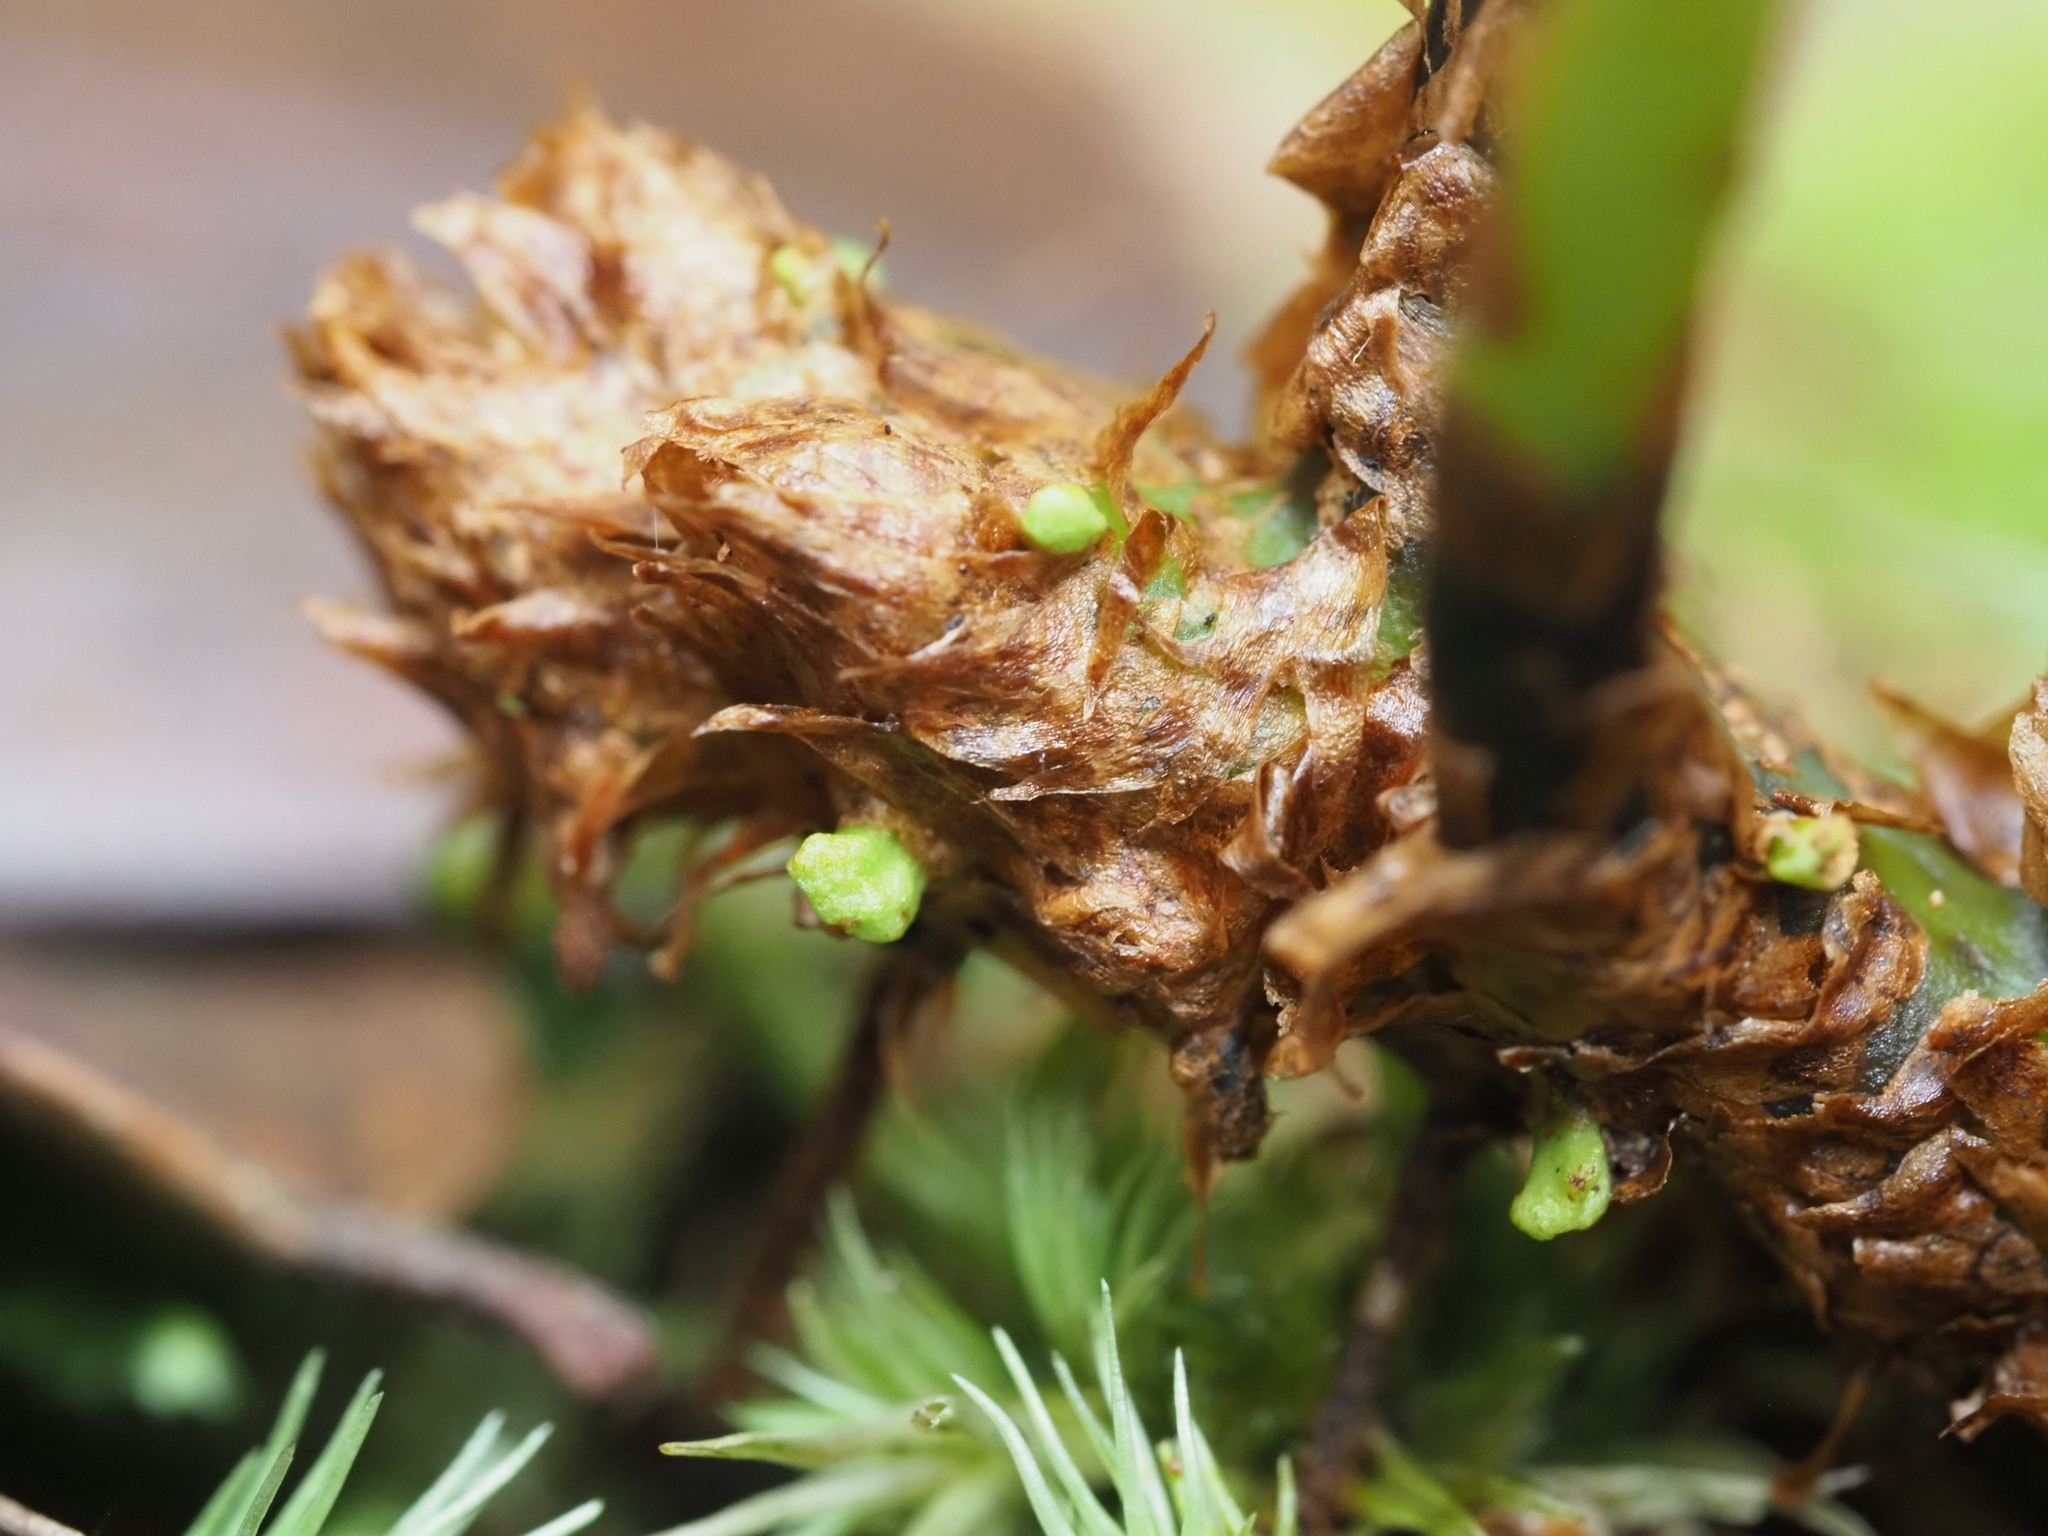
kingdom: Plantae
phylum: Tracheophyta
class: Polypodiopsida
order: Polypodiales
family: Dryopteridaceae
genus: Elaphoglossum
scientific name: Elaphoglossum wawrae
